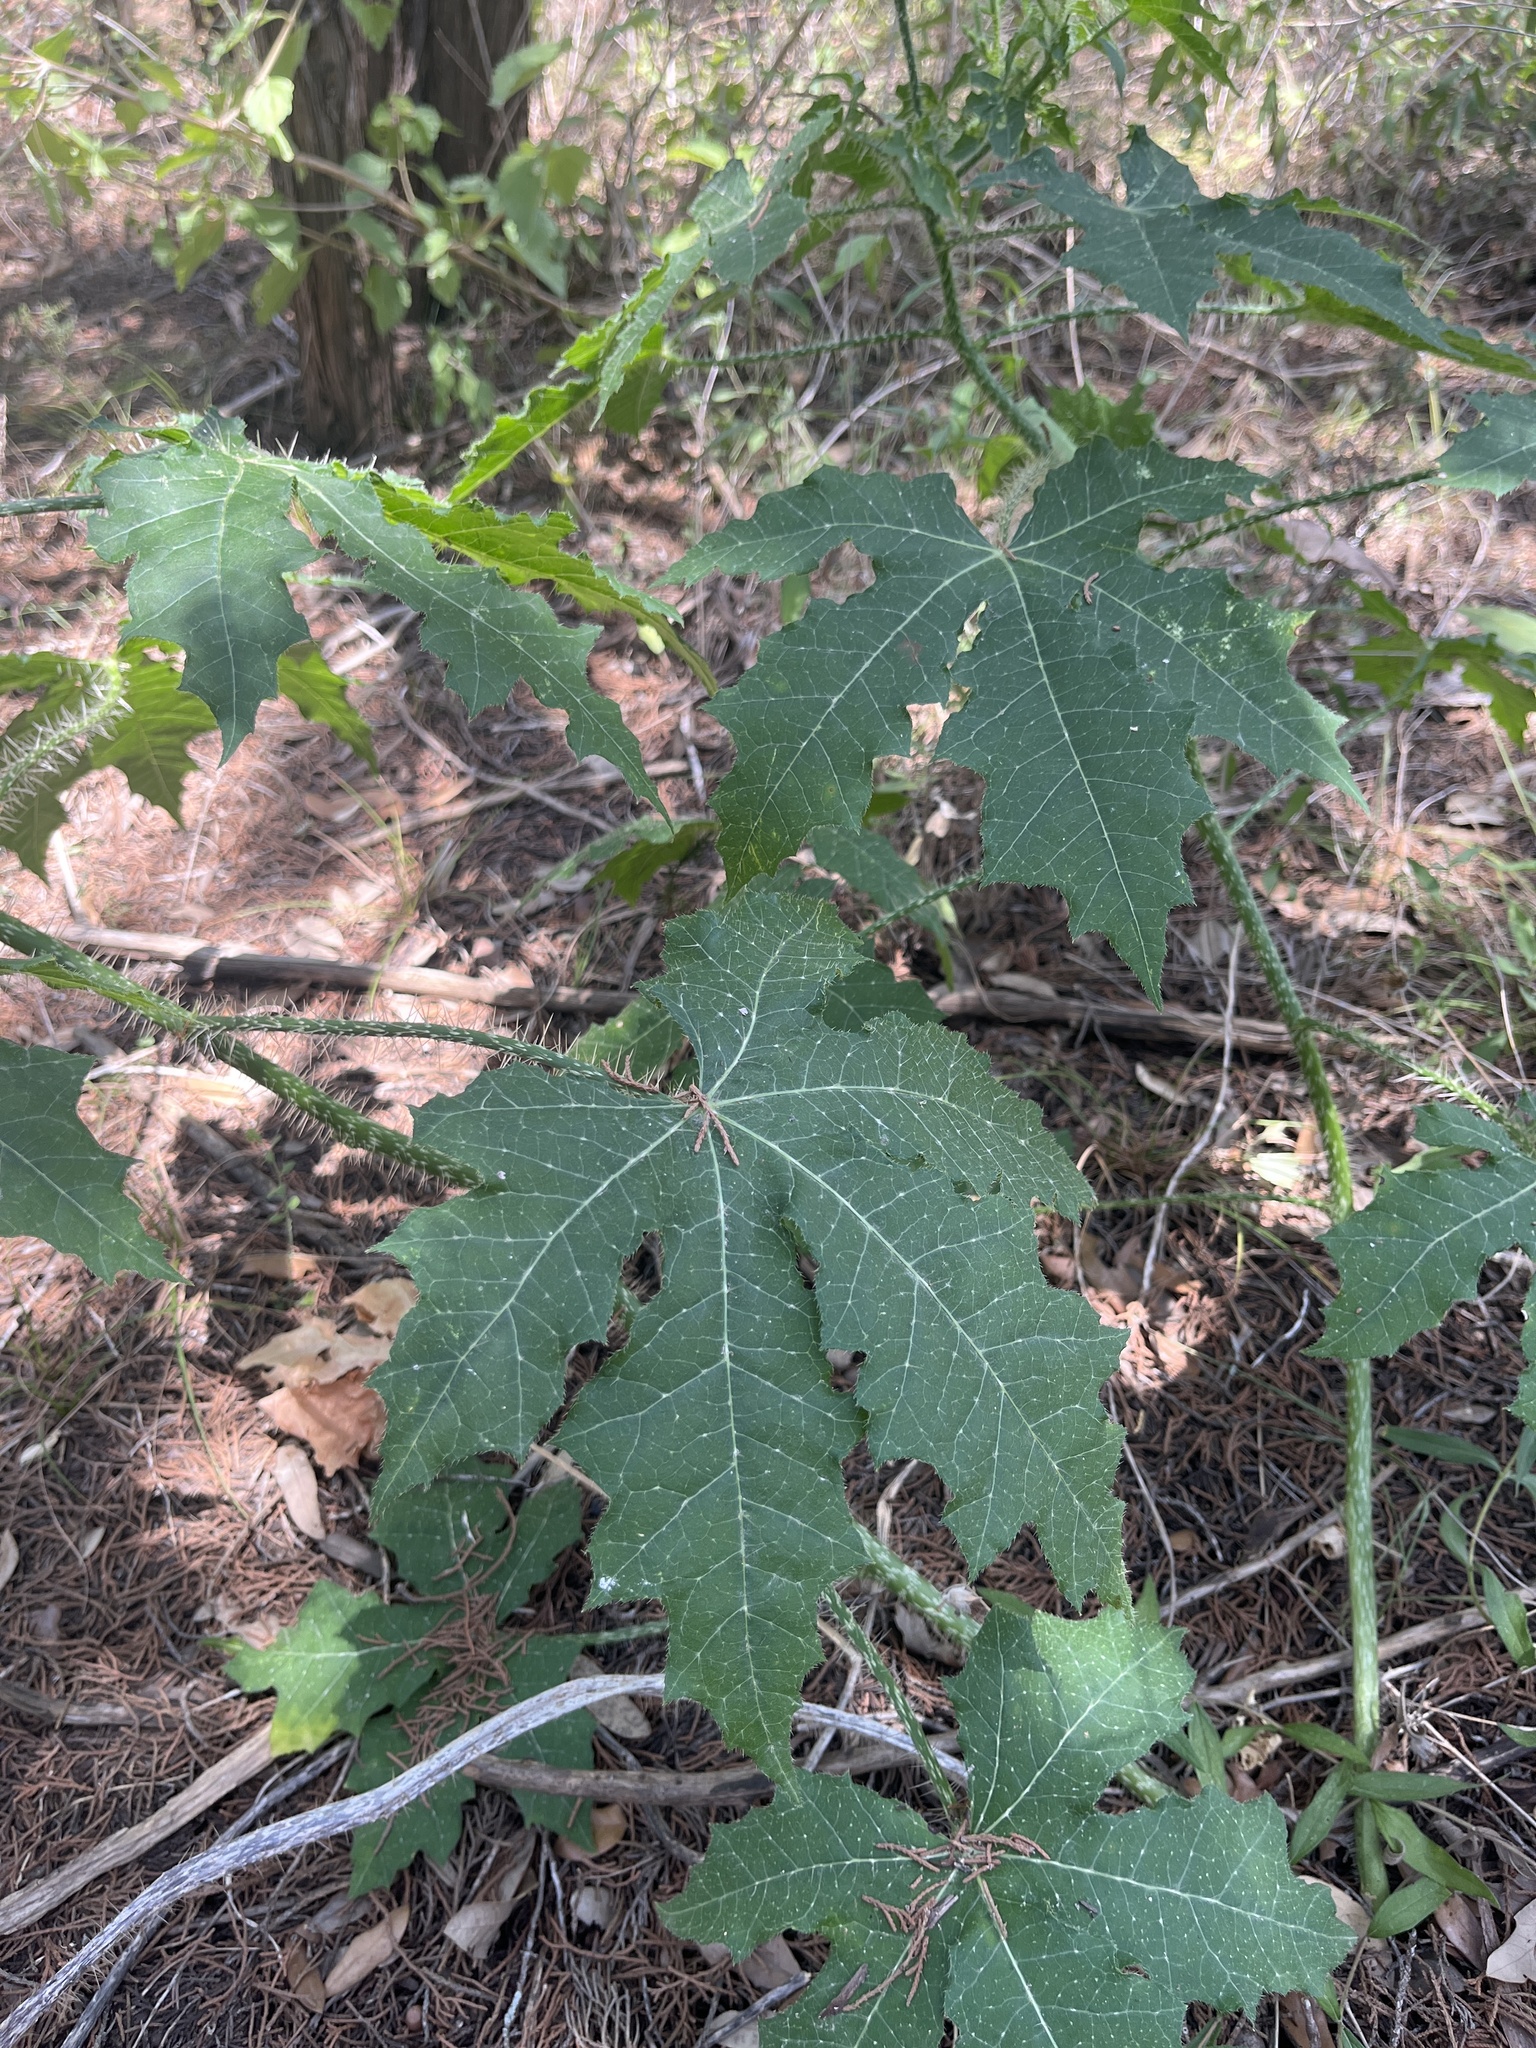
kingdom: Plantae
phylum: Tracheophyta
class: Magnoliopsida
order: Malpighiales
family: Euphorbiaceae
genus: Cnidoscolus
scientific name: Cnidoscolus texanus
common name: Texas bull-nettle
